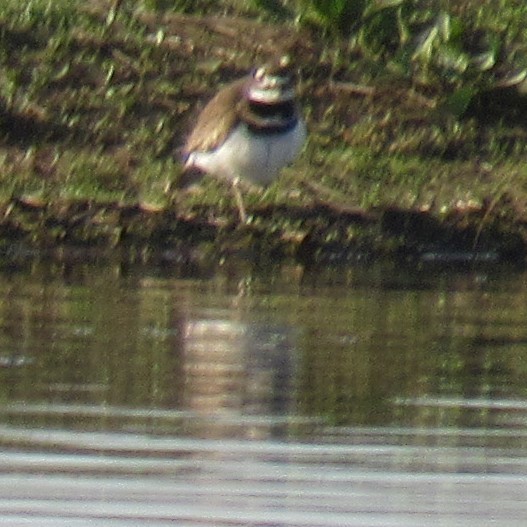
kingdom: Animalia
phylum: Chordata
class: Aves
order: Charadriiformes
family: Charadriidae
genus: Charadrius
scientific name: Charadrius vociferus
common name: Killdeer
